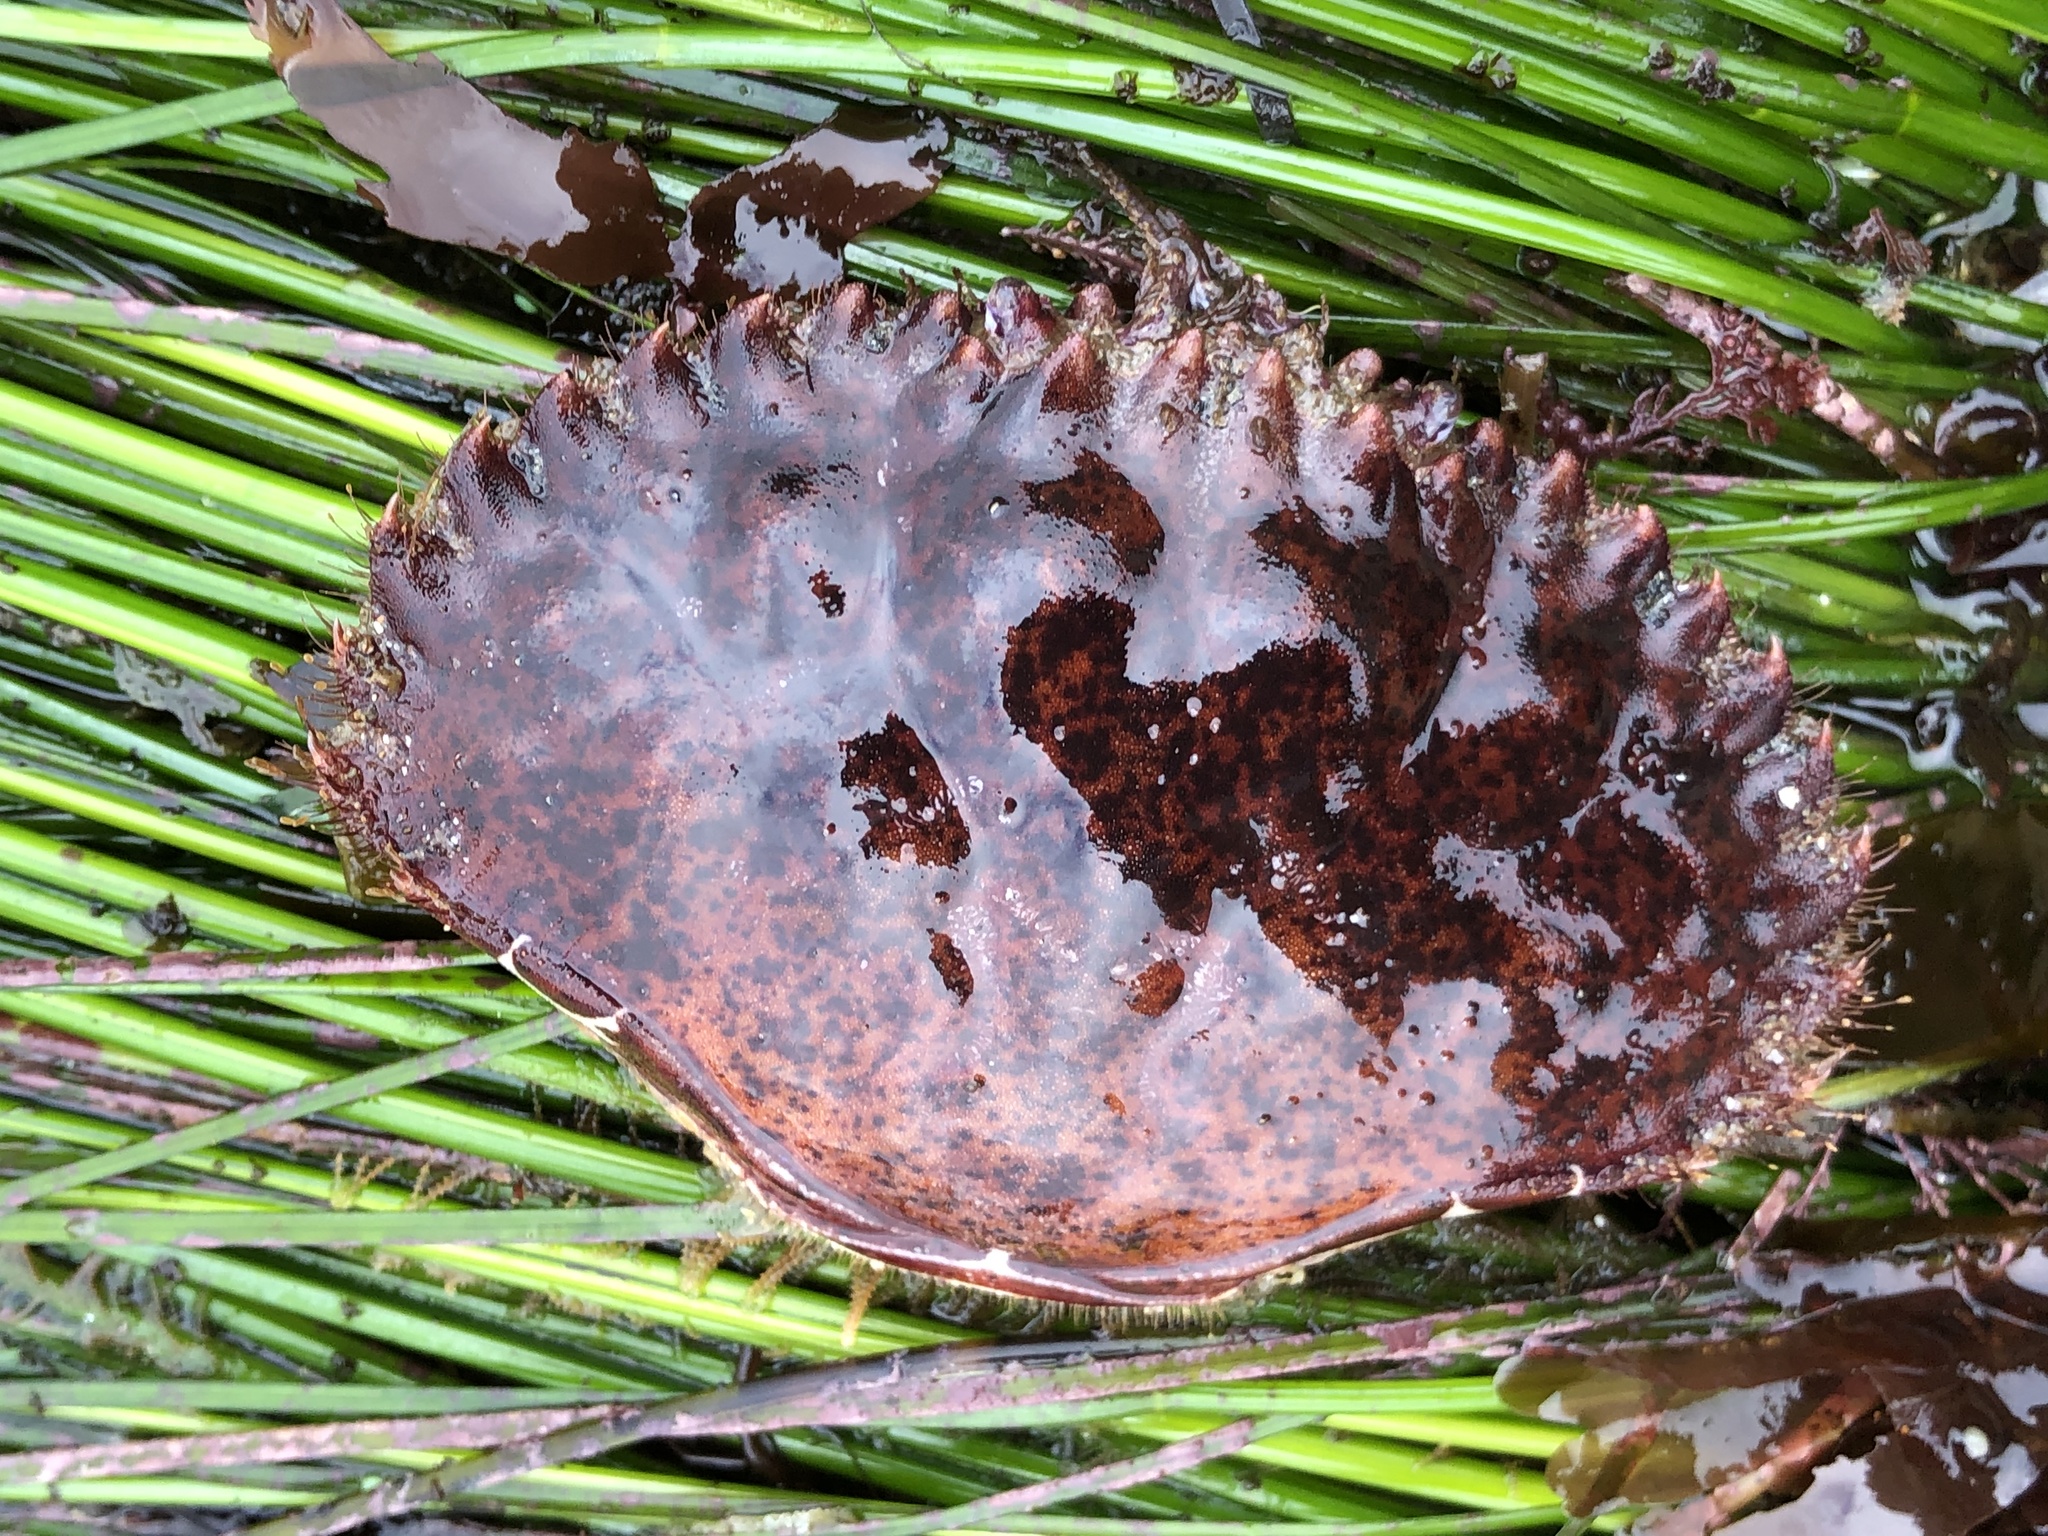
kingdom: Animalia
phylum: Arthropoda
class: Malacostraca
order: Decapoda
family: Cancridae
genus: Romaleon
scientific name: Romaleon antennarium
